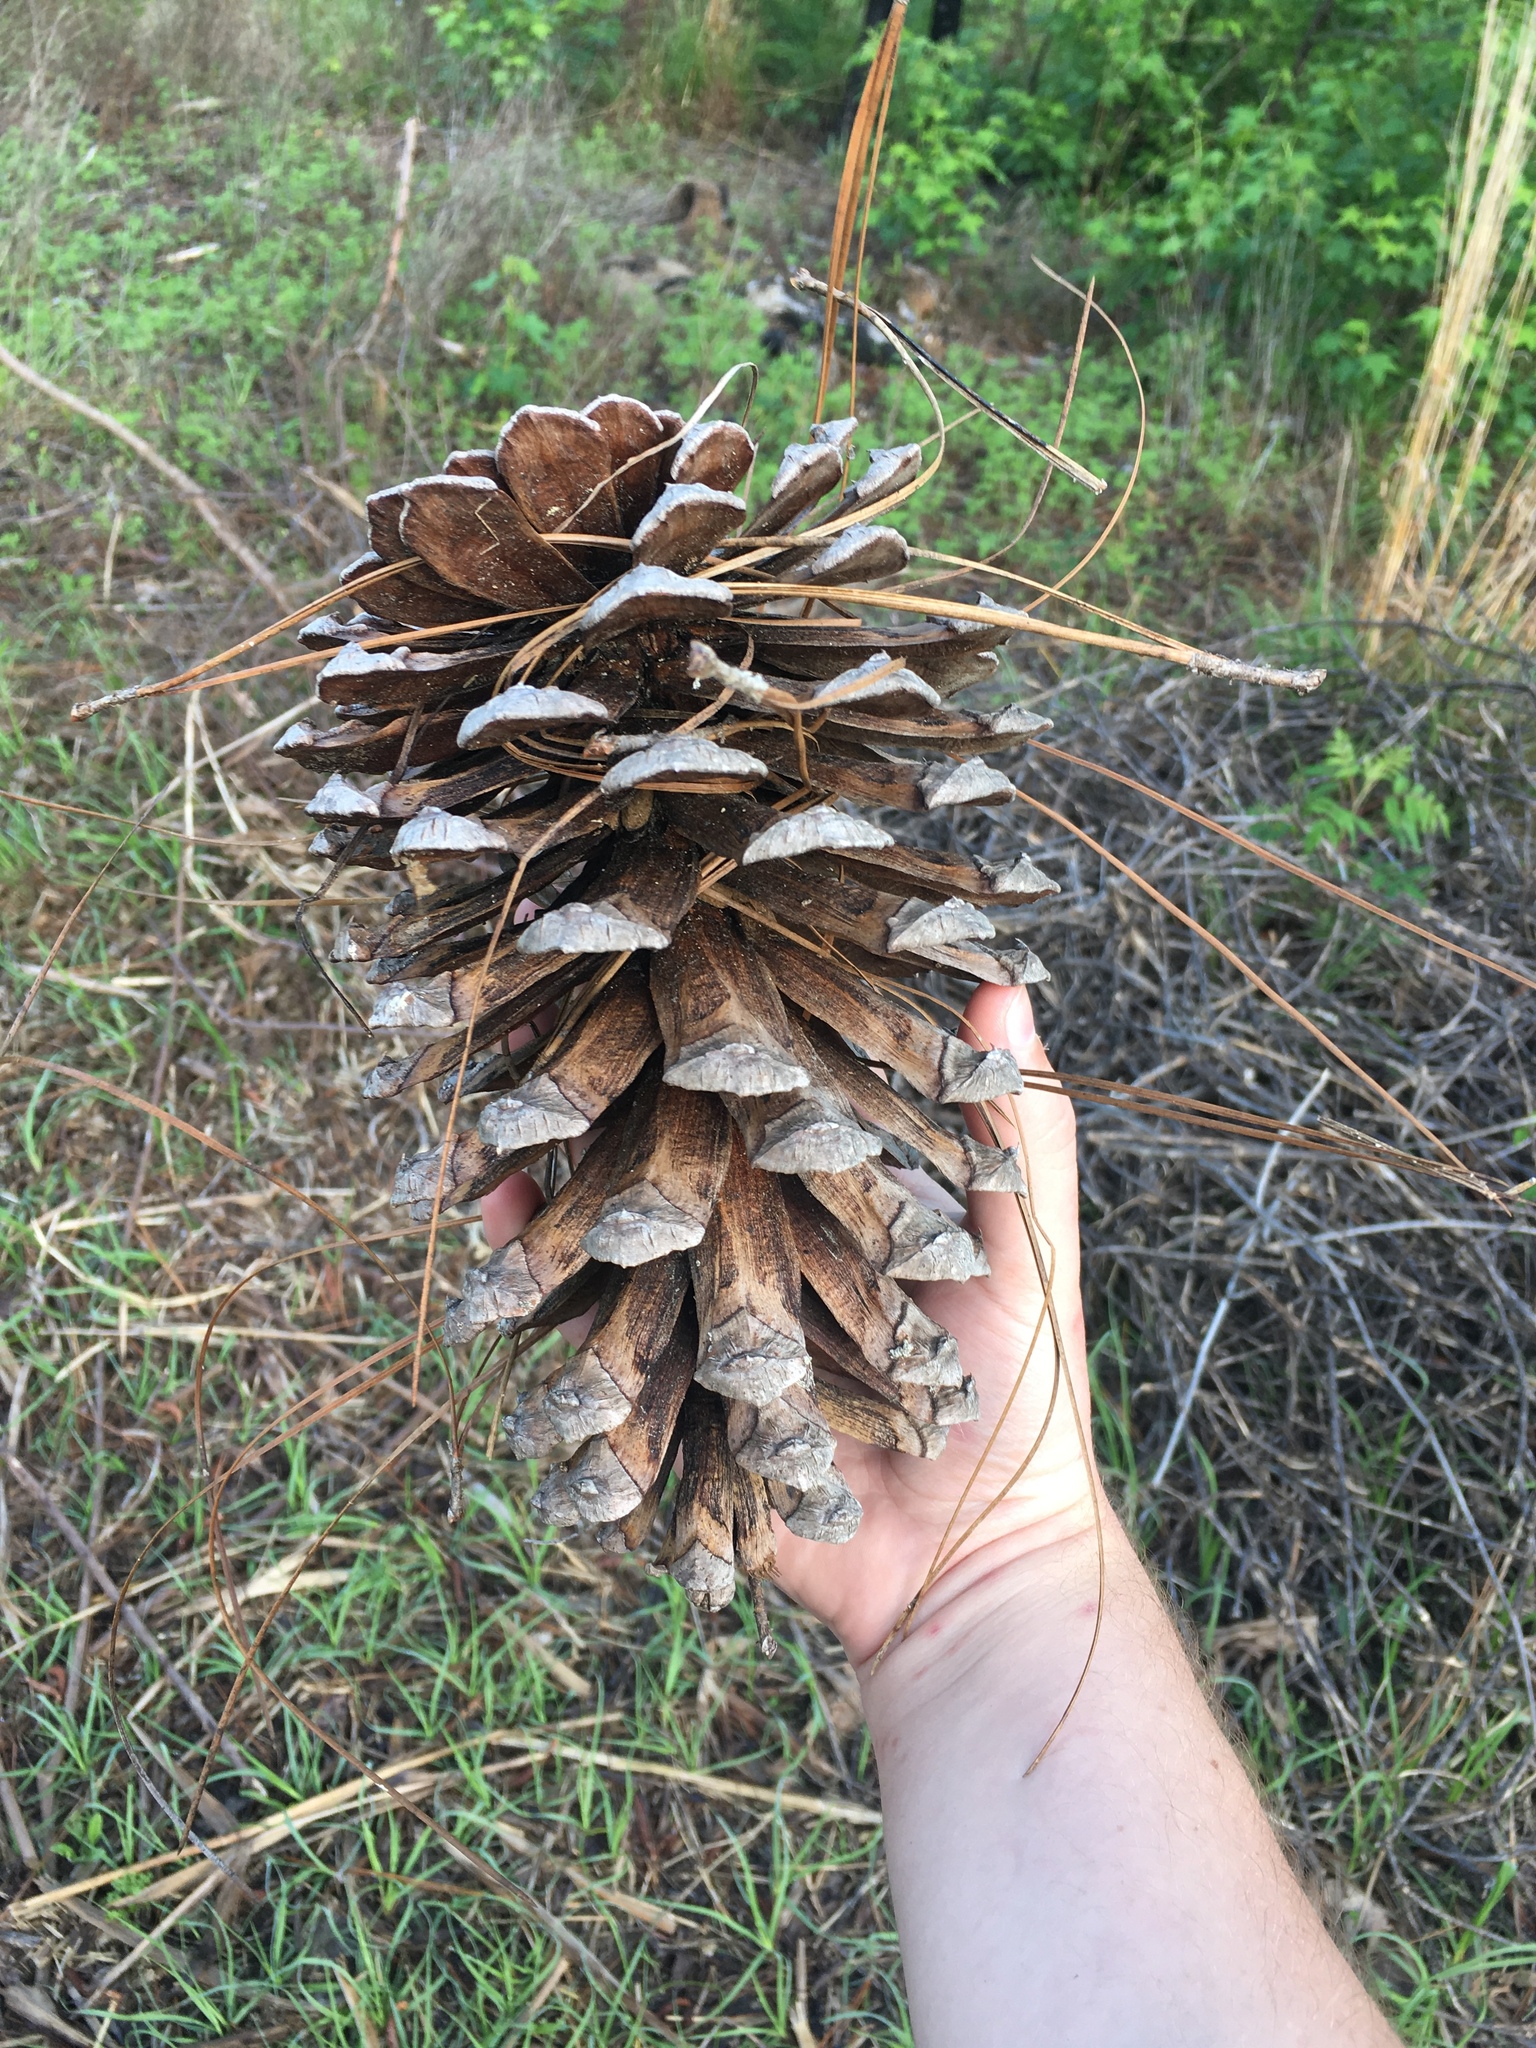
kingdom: Plantae
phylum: Tracheophyta
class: Pinopsida
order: Pinales
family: Pinaceae
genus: Pinus
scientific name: Pinus palustris
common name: Longleaf pine
